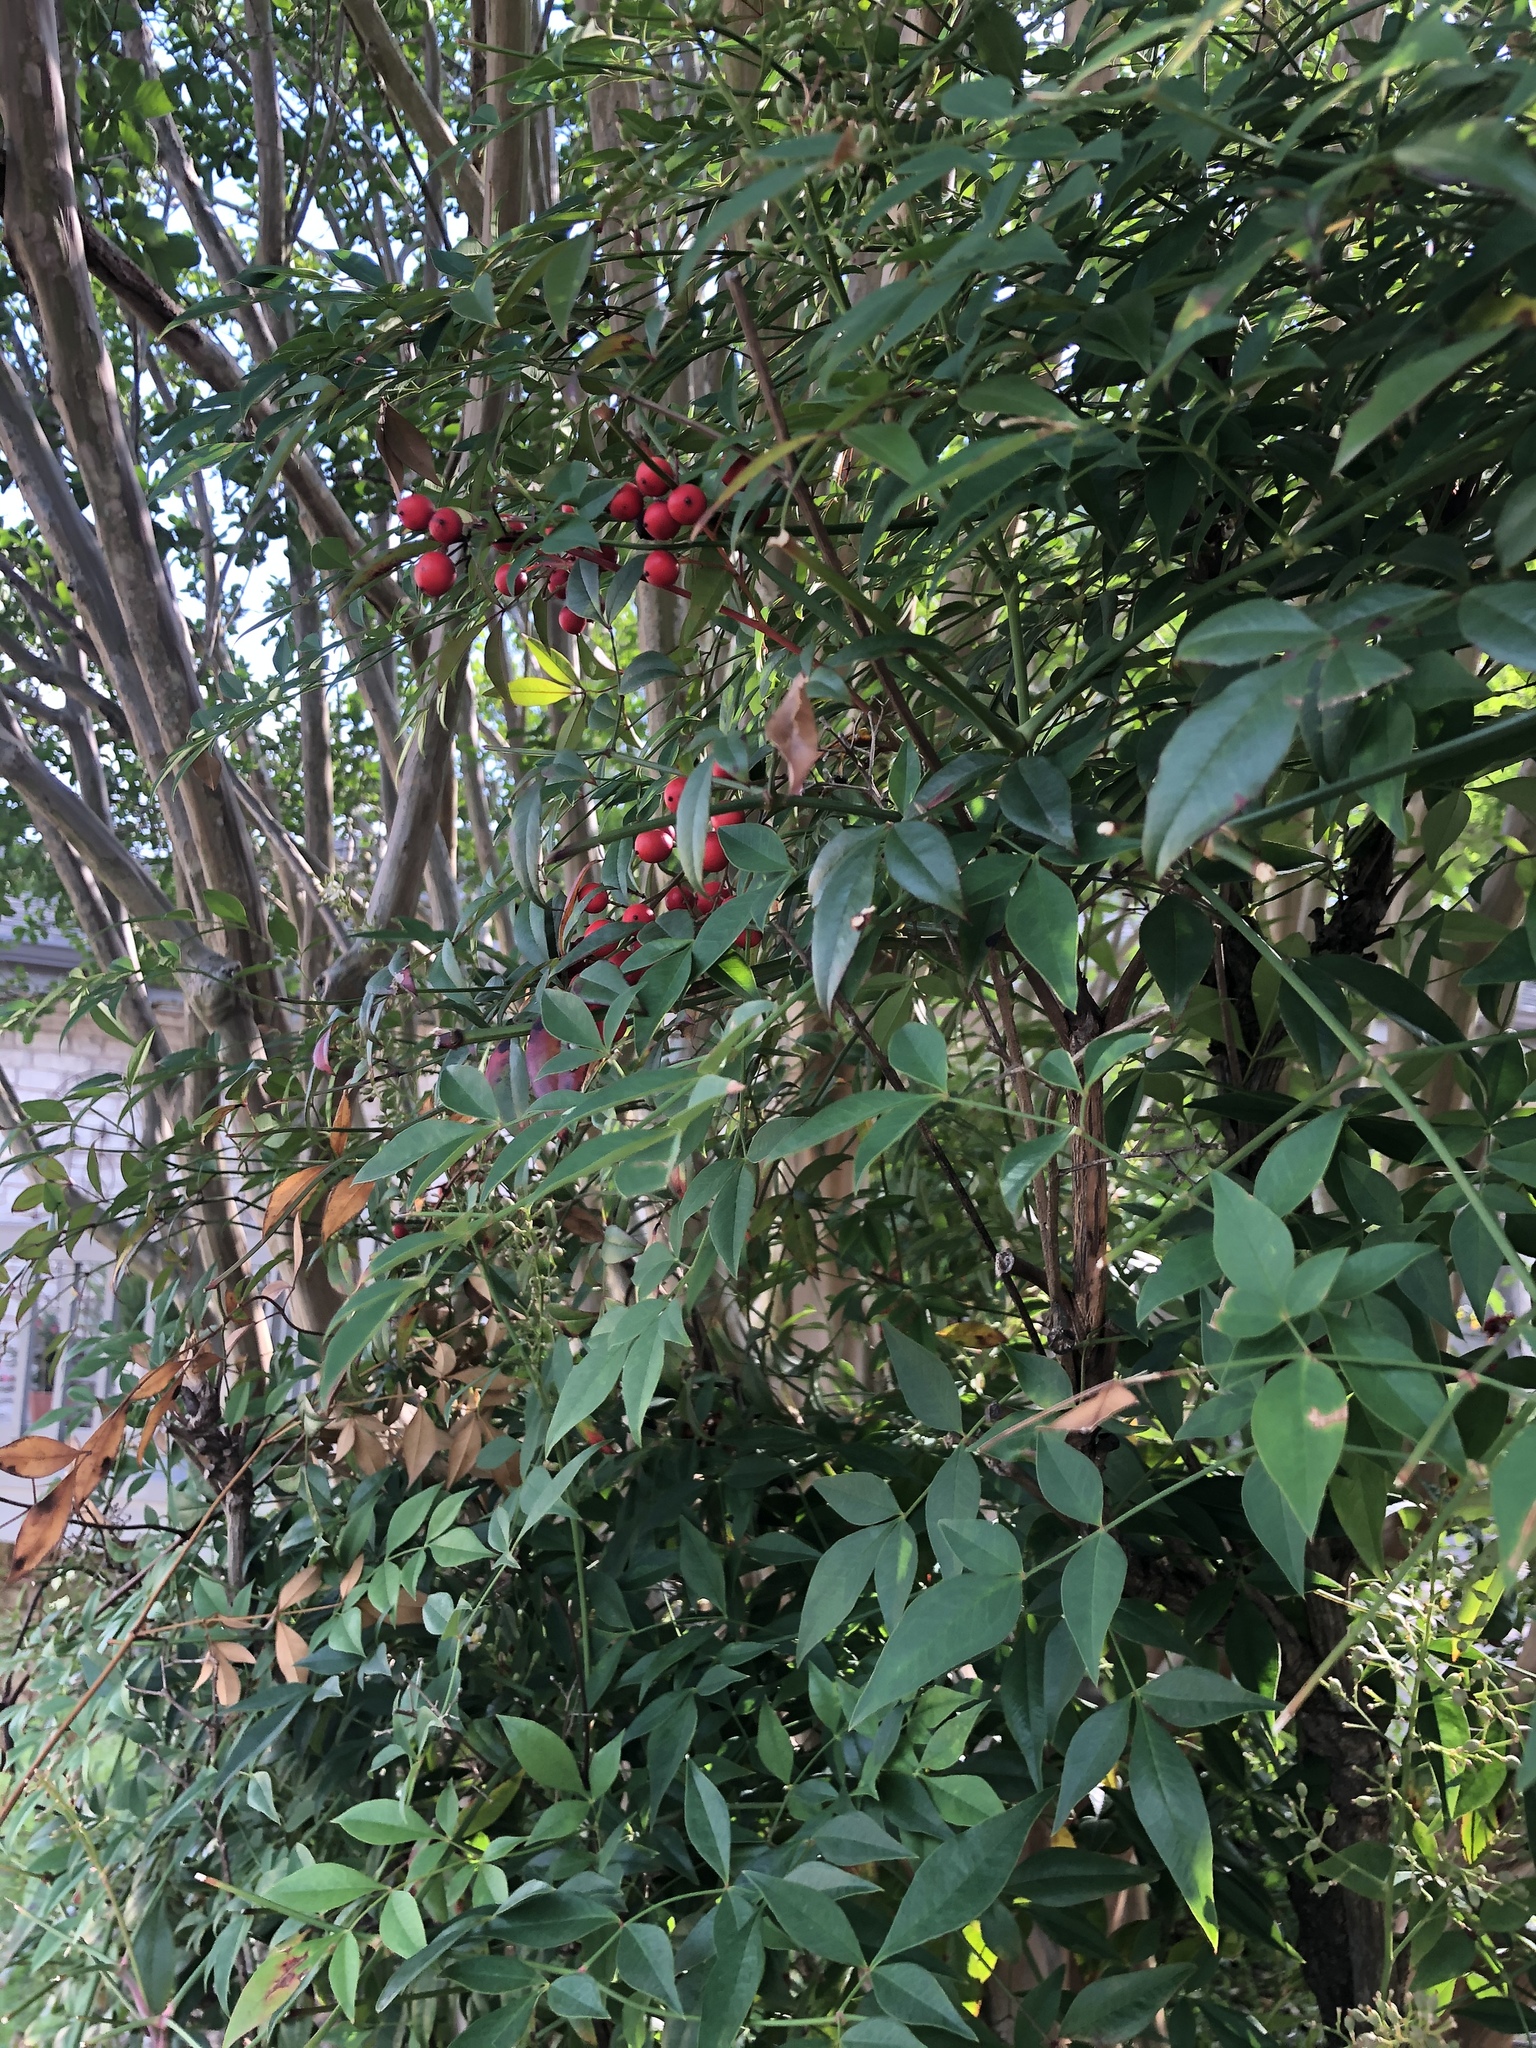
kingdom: Plantae
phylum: Tracheophyta
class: Magnoliopsida
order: Ranunculales
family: Berberidaceae
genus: Nandina
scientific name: Nandina domestica
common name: Sacred bamboo
